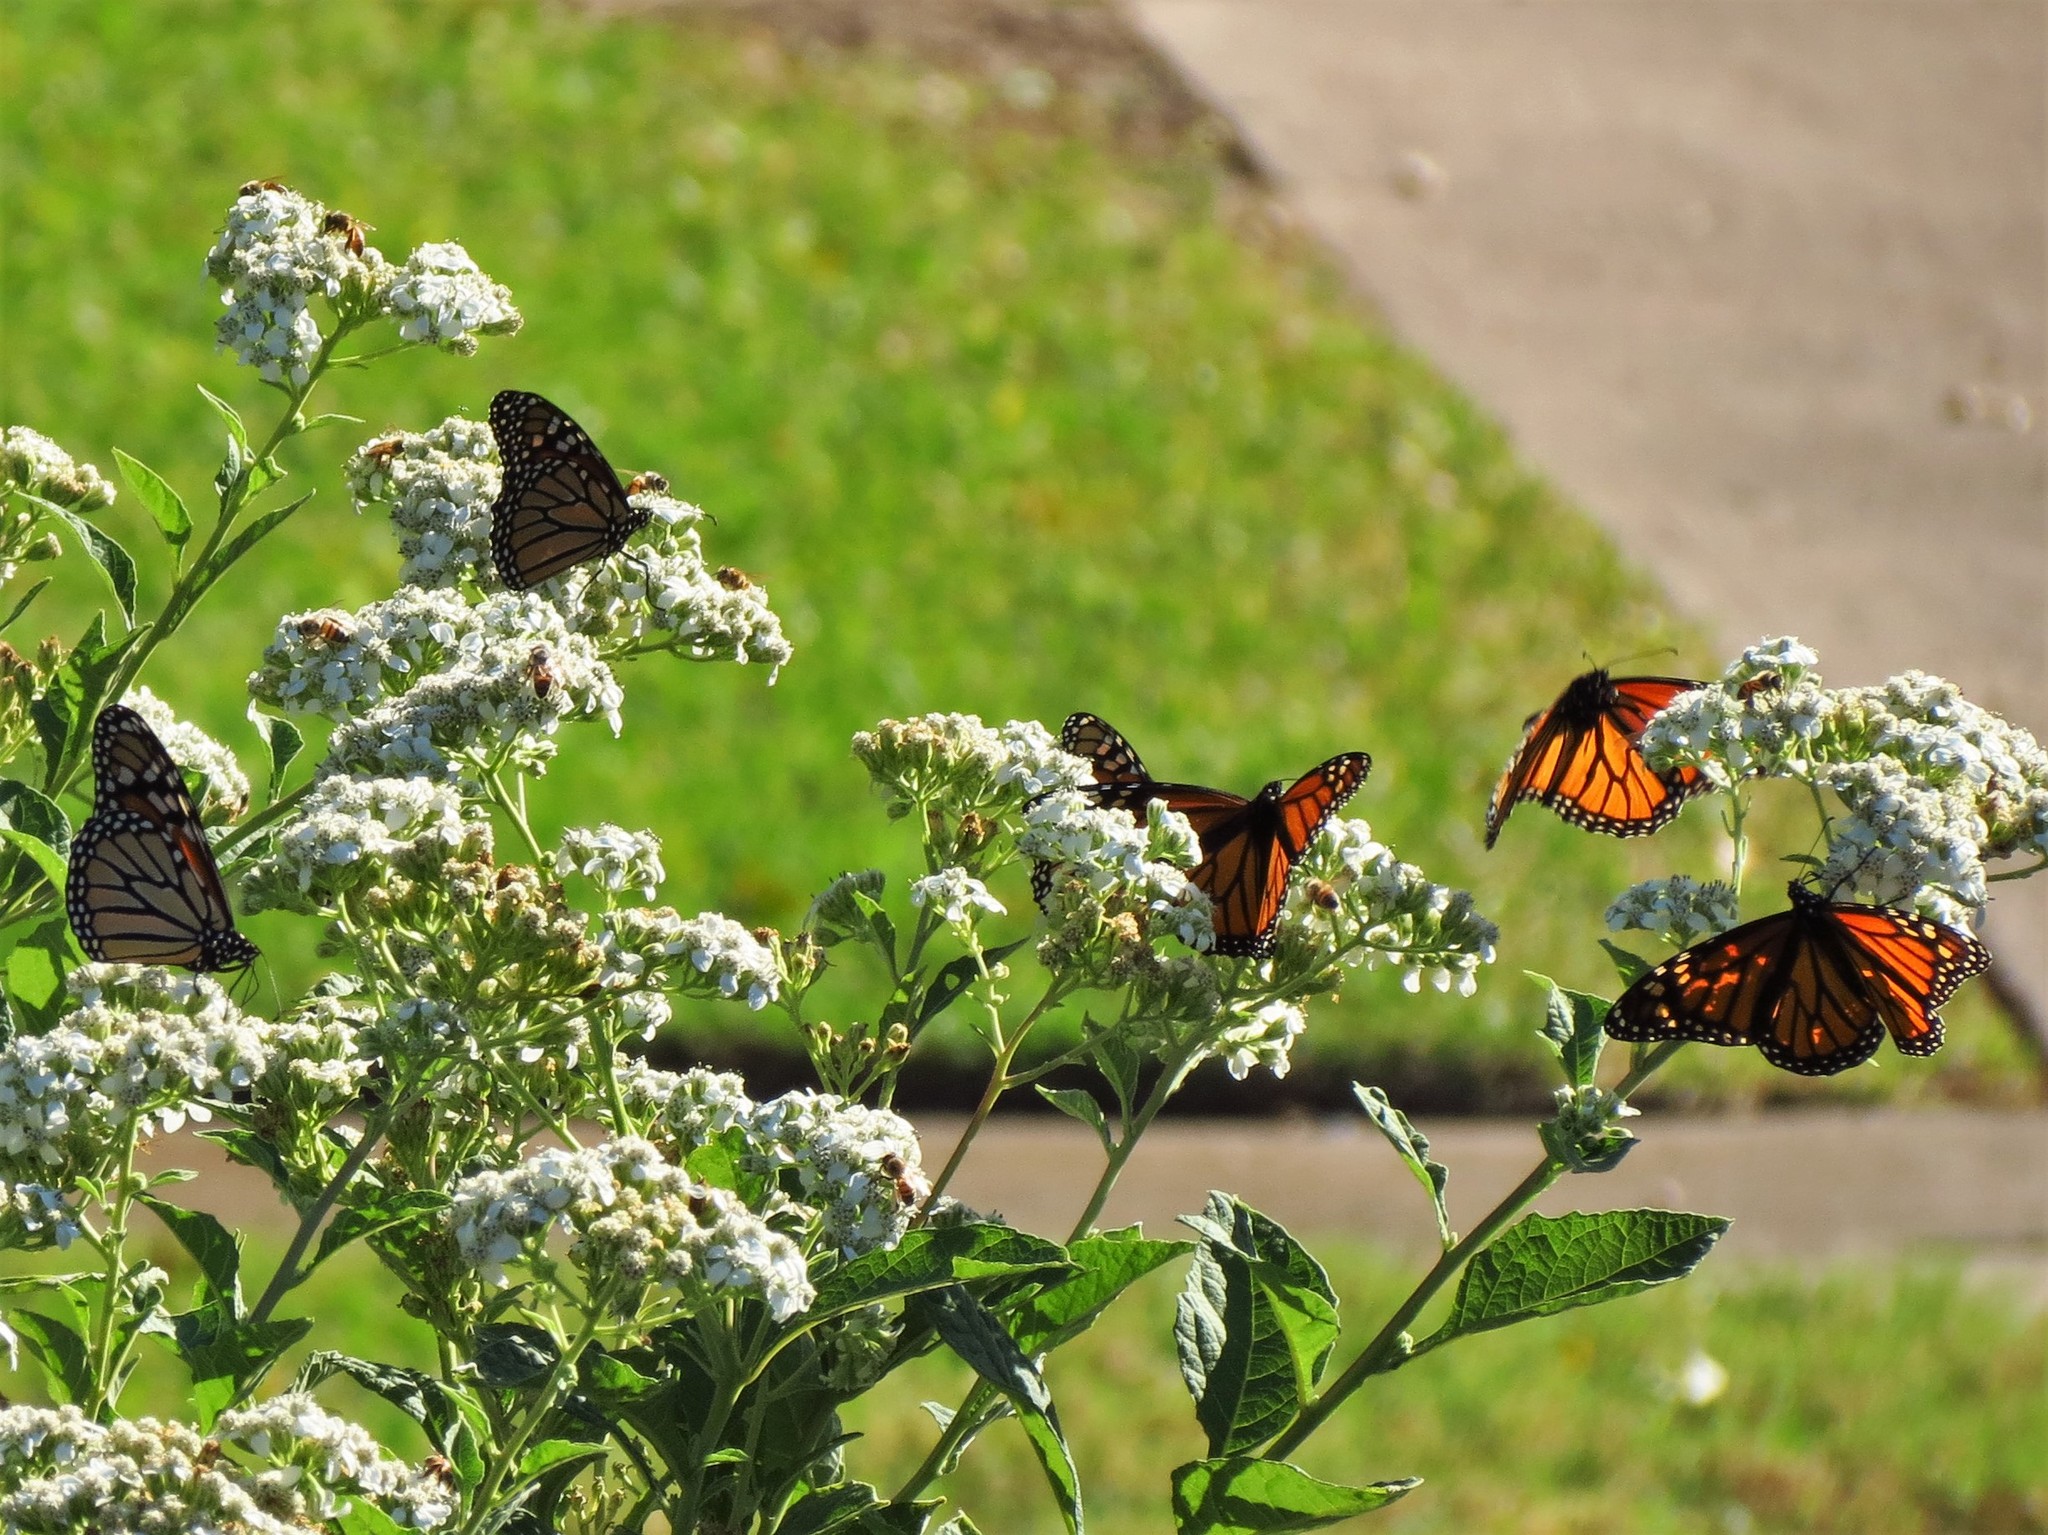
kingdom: Animalia
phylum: Arthropoda
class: Insecta
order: Lepidoptera
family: Nymphalidae
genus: Danaus
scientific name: Danaus plexippus
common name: Monarch
